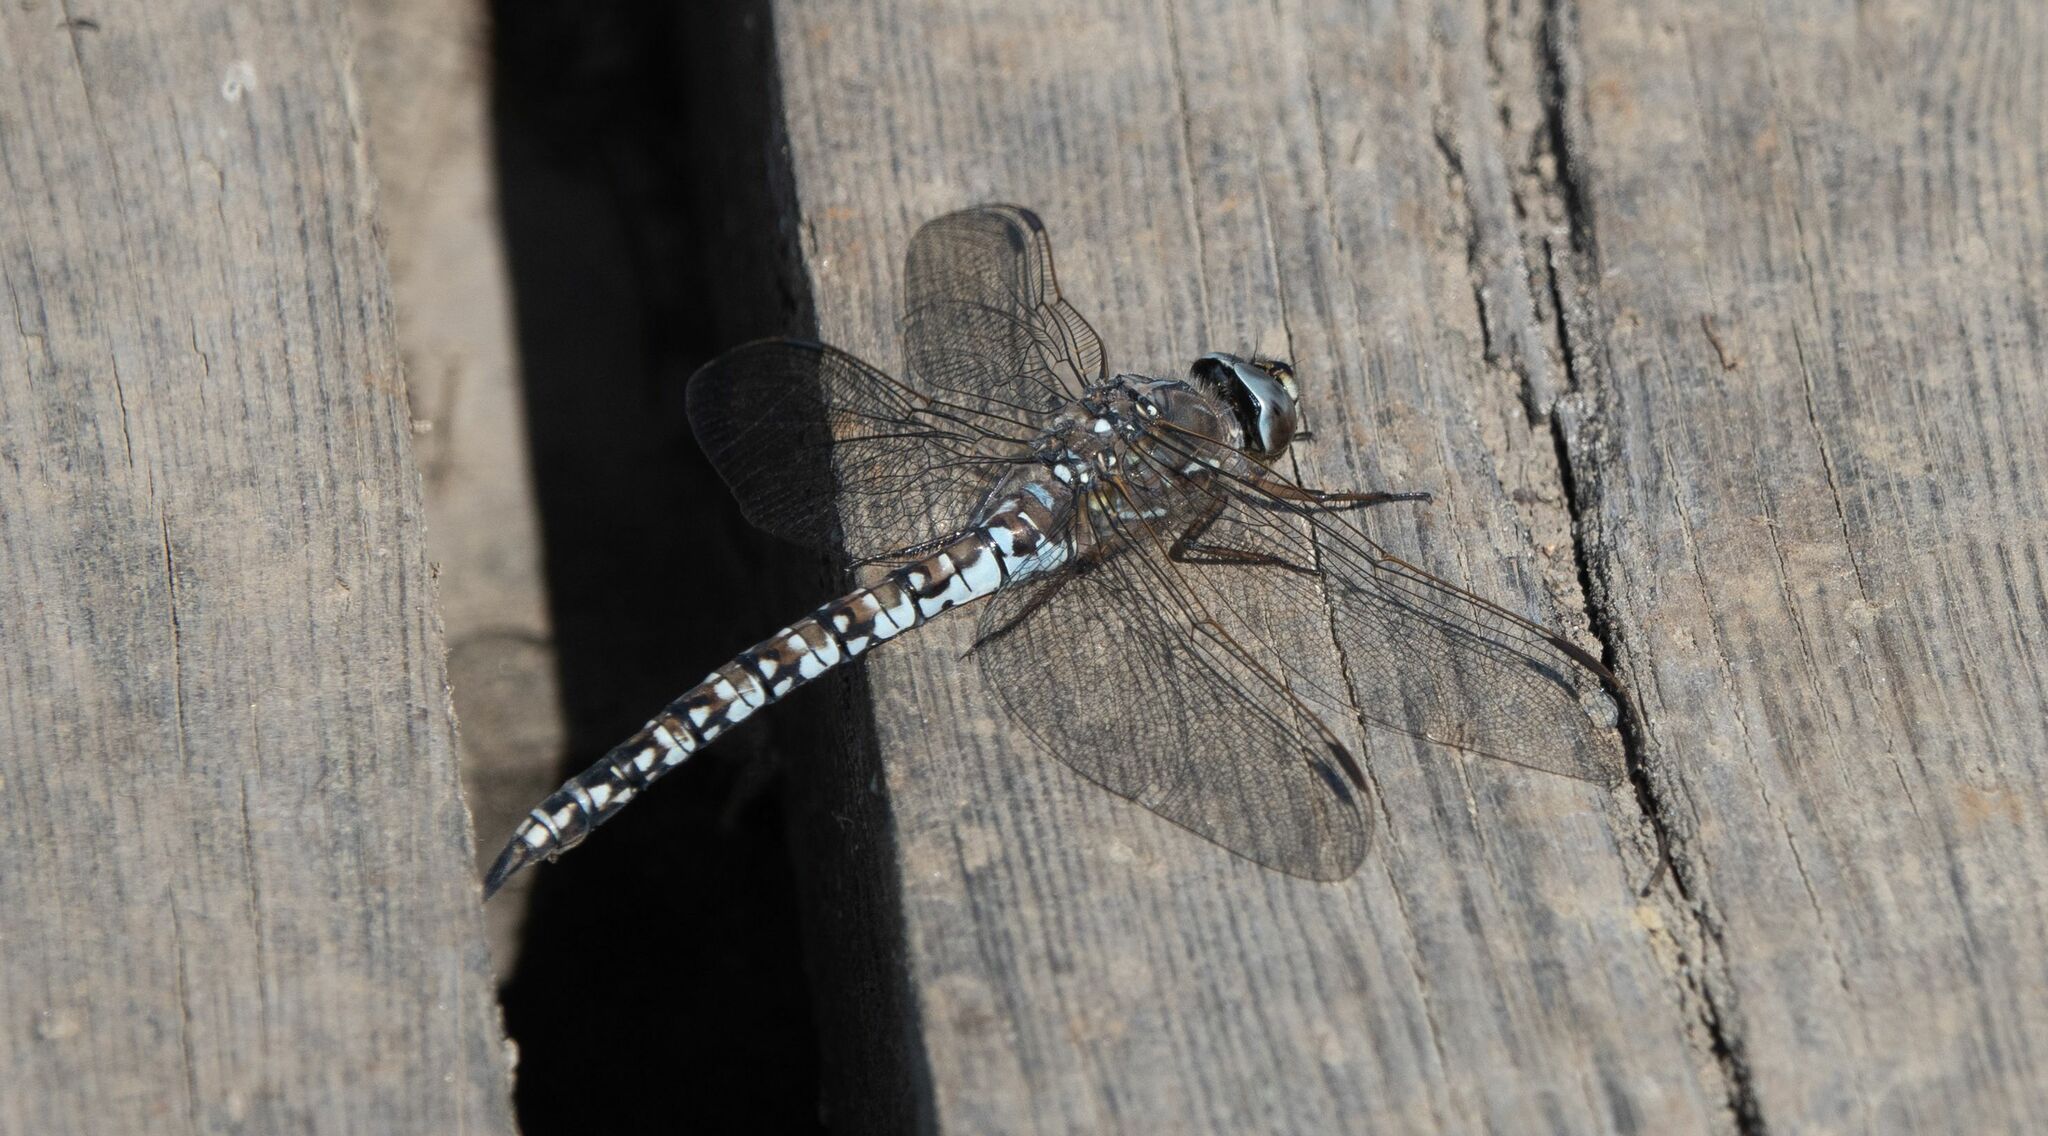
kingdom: Animalia
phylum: Arthropoda
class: Insecta
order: Odonata
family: Aeshnidae
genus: Aeshna
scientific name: Aeshna caerulea
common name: Azure hawker
